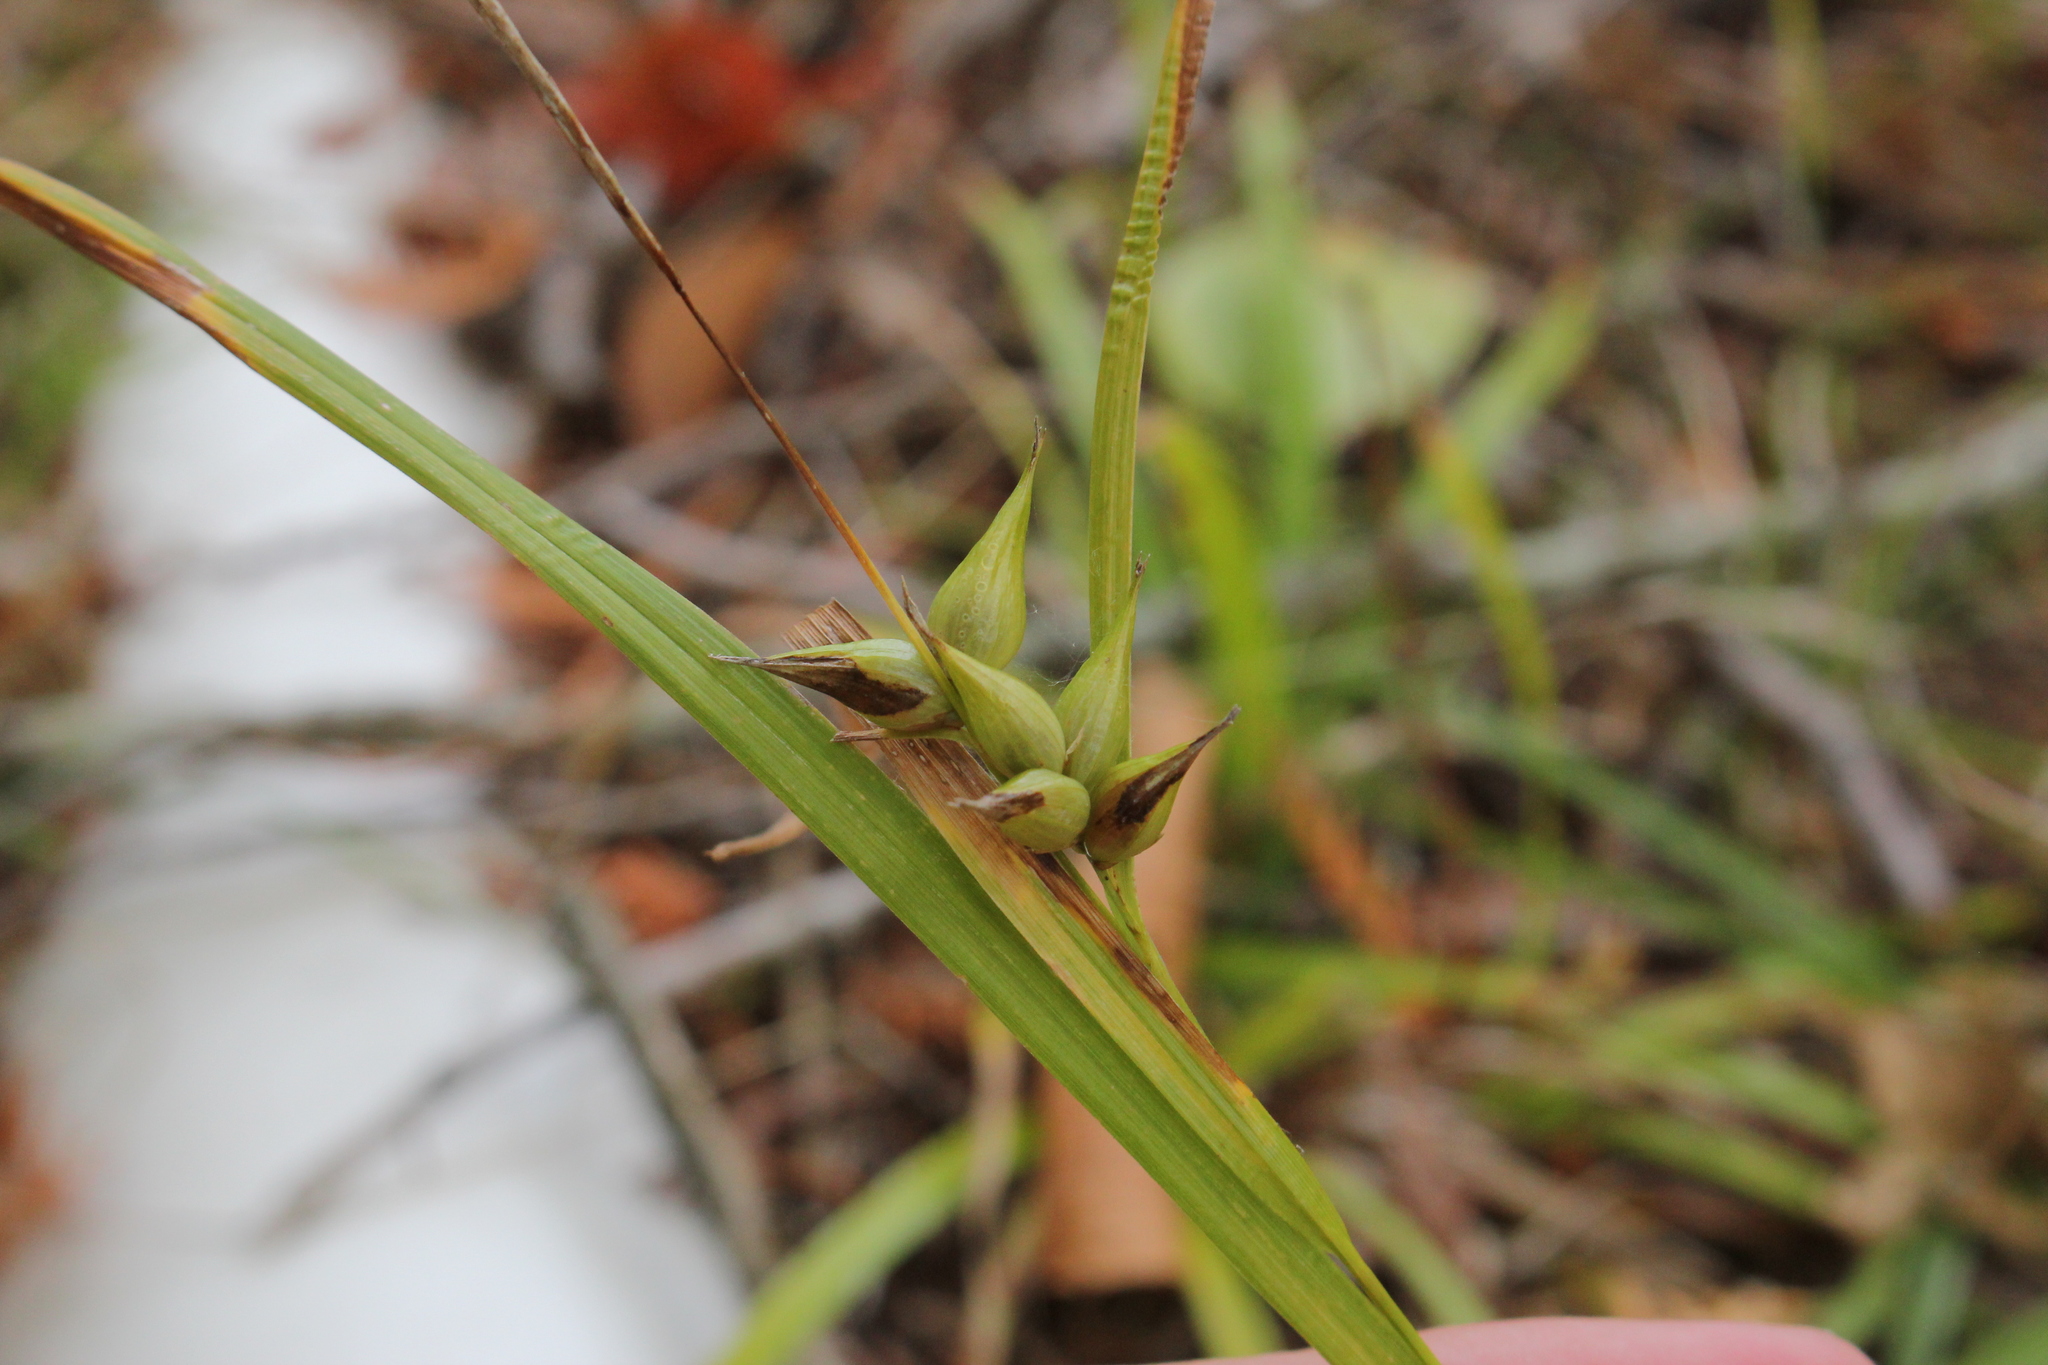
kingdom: Plantae
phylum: Tracheophyta
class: Liliopsida
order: Poales
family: Cyperaceae
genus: Carex
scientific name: Carex intumescens
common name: Greater bladder sedge
